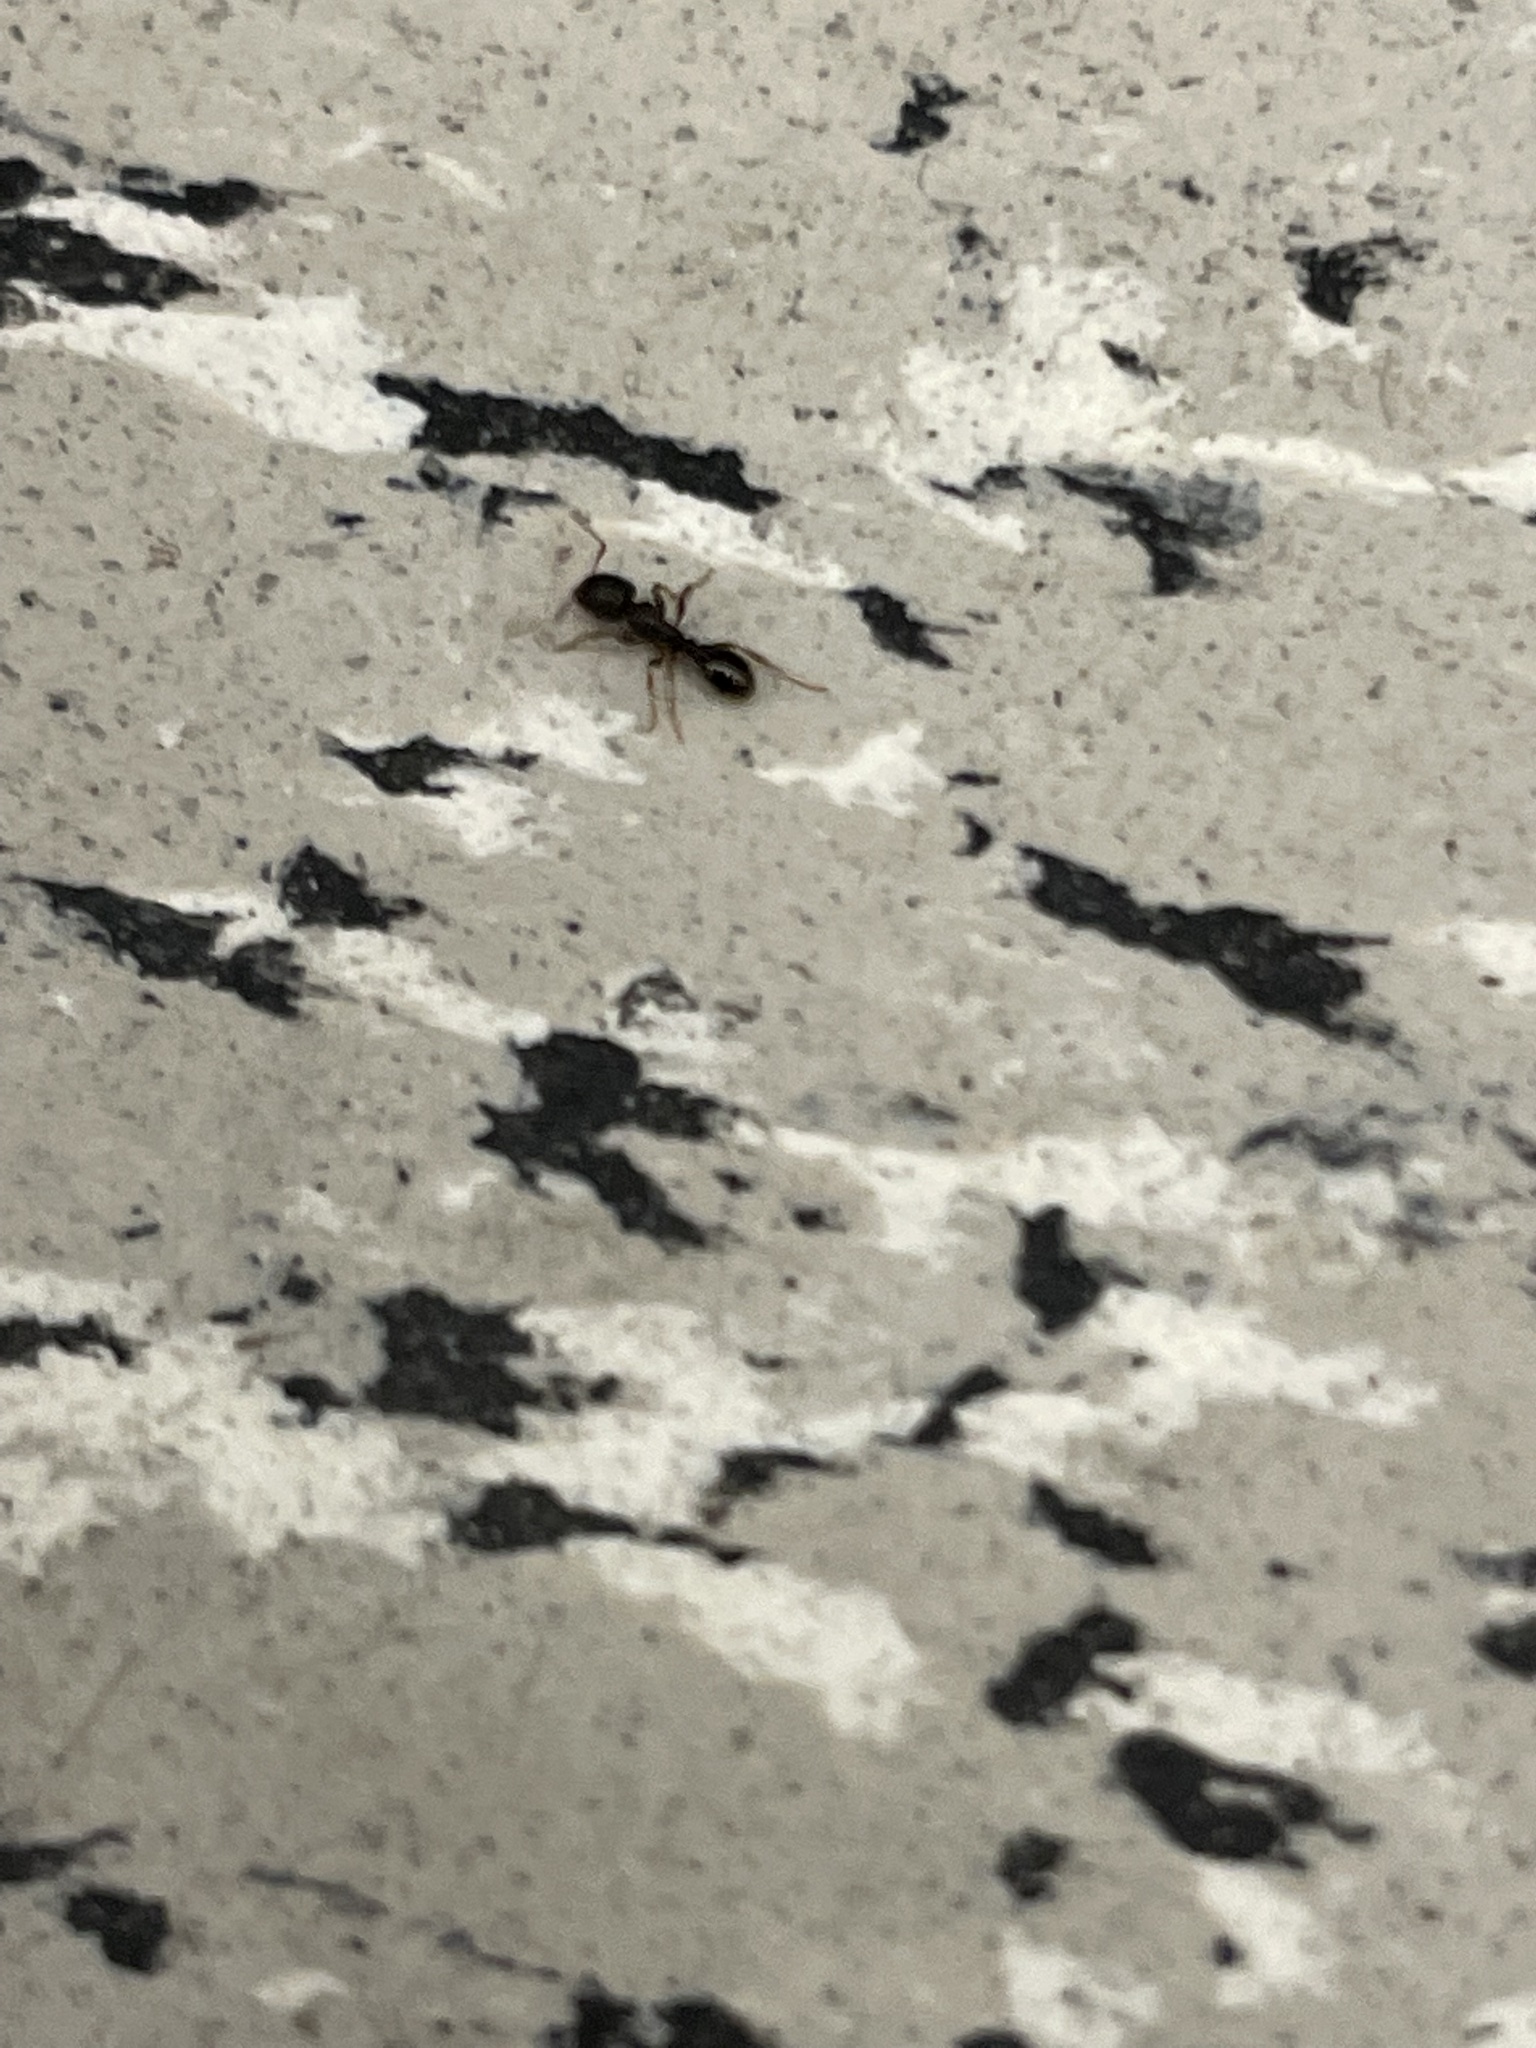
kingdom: Animalia
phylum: Arthropoda
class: Insecta
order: Hymenoptera
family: Formicidae
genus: Tetramorium
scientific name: Tetramorium immigrans
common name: Pavement ant
